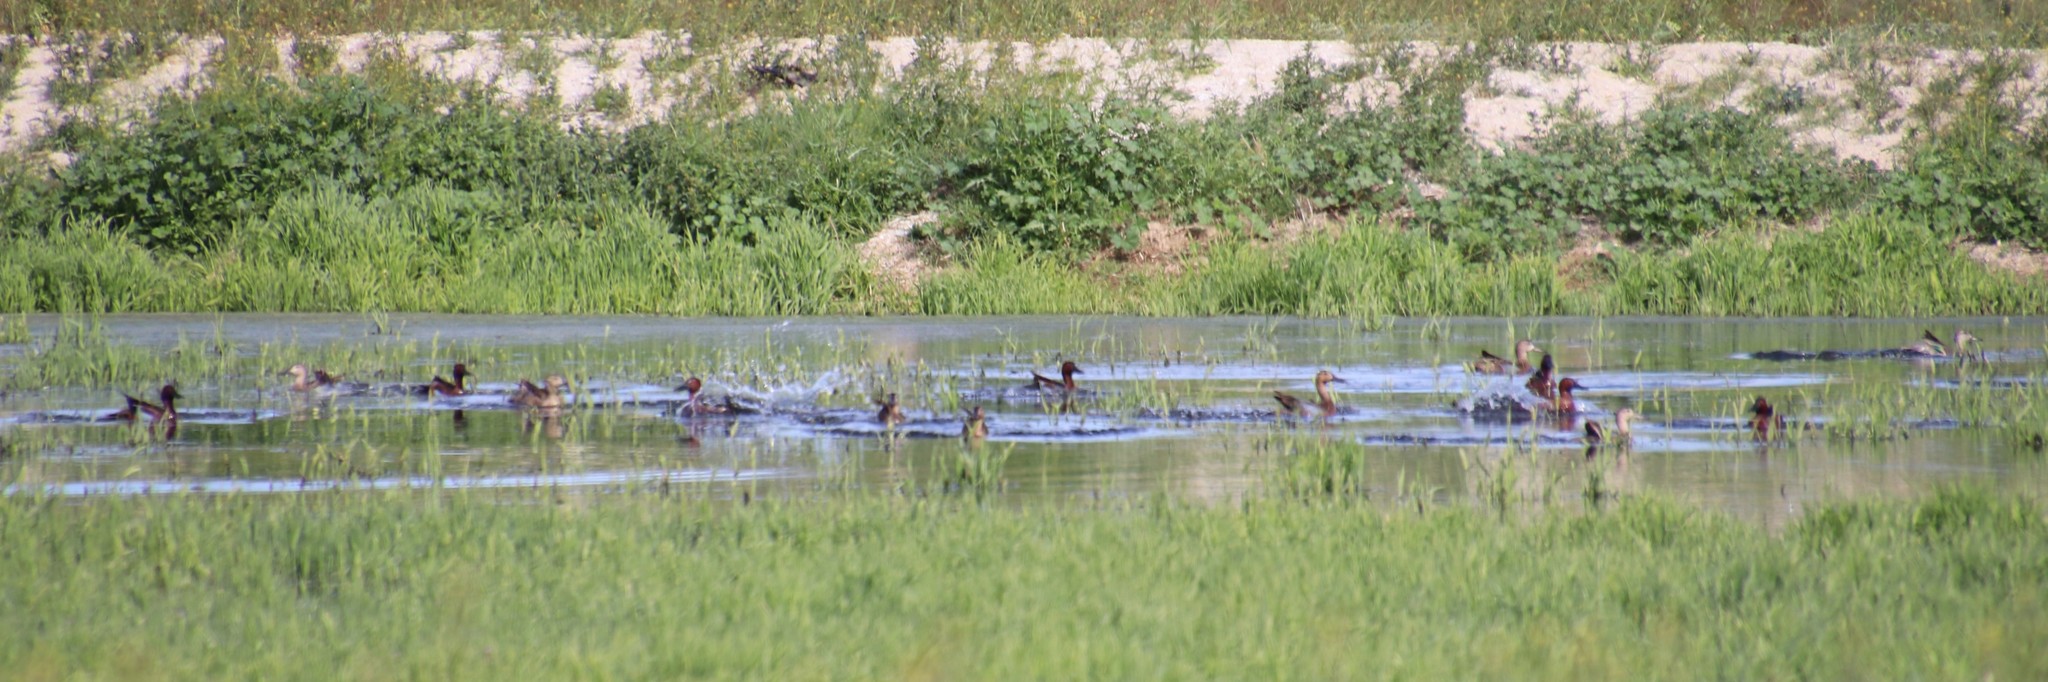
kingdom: Animalia
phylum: Chordata
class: Aves
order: Anseriformes
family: Anatidae
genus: Spatula
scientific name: Spatula cyanoptera
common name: Cinnamon teal
